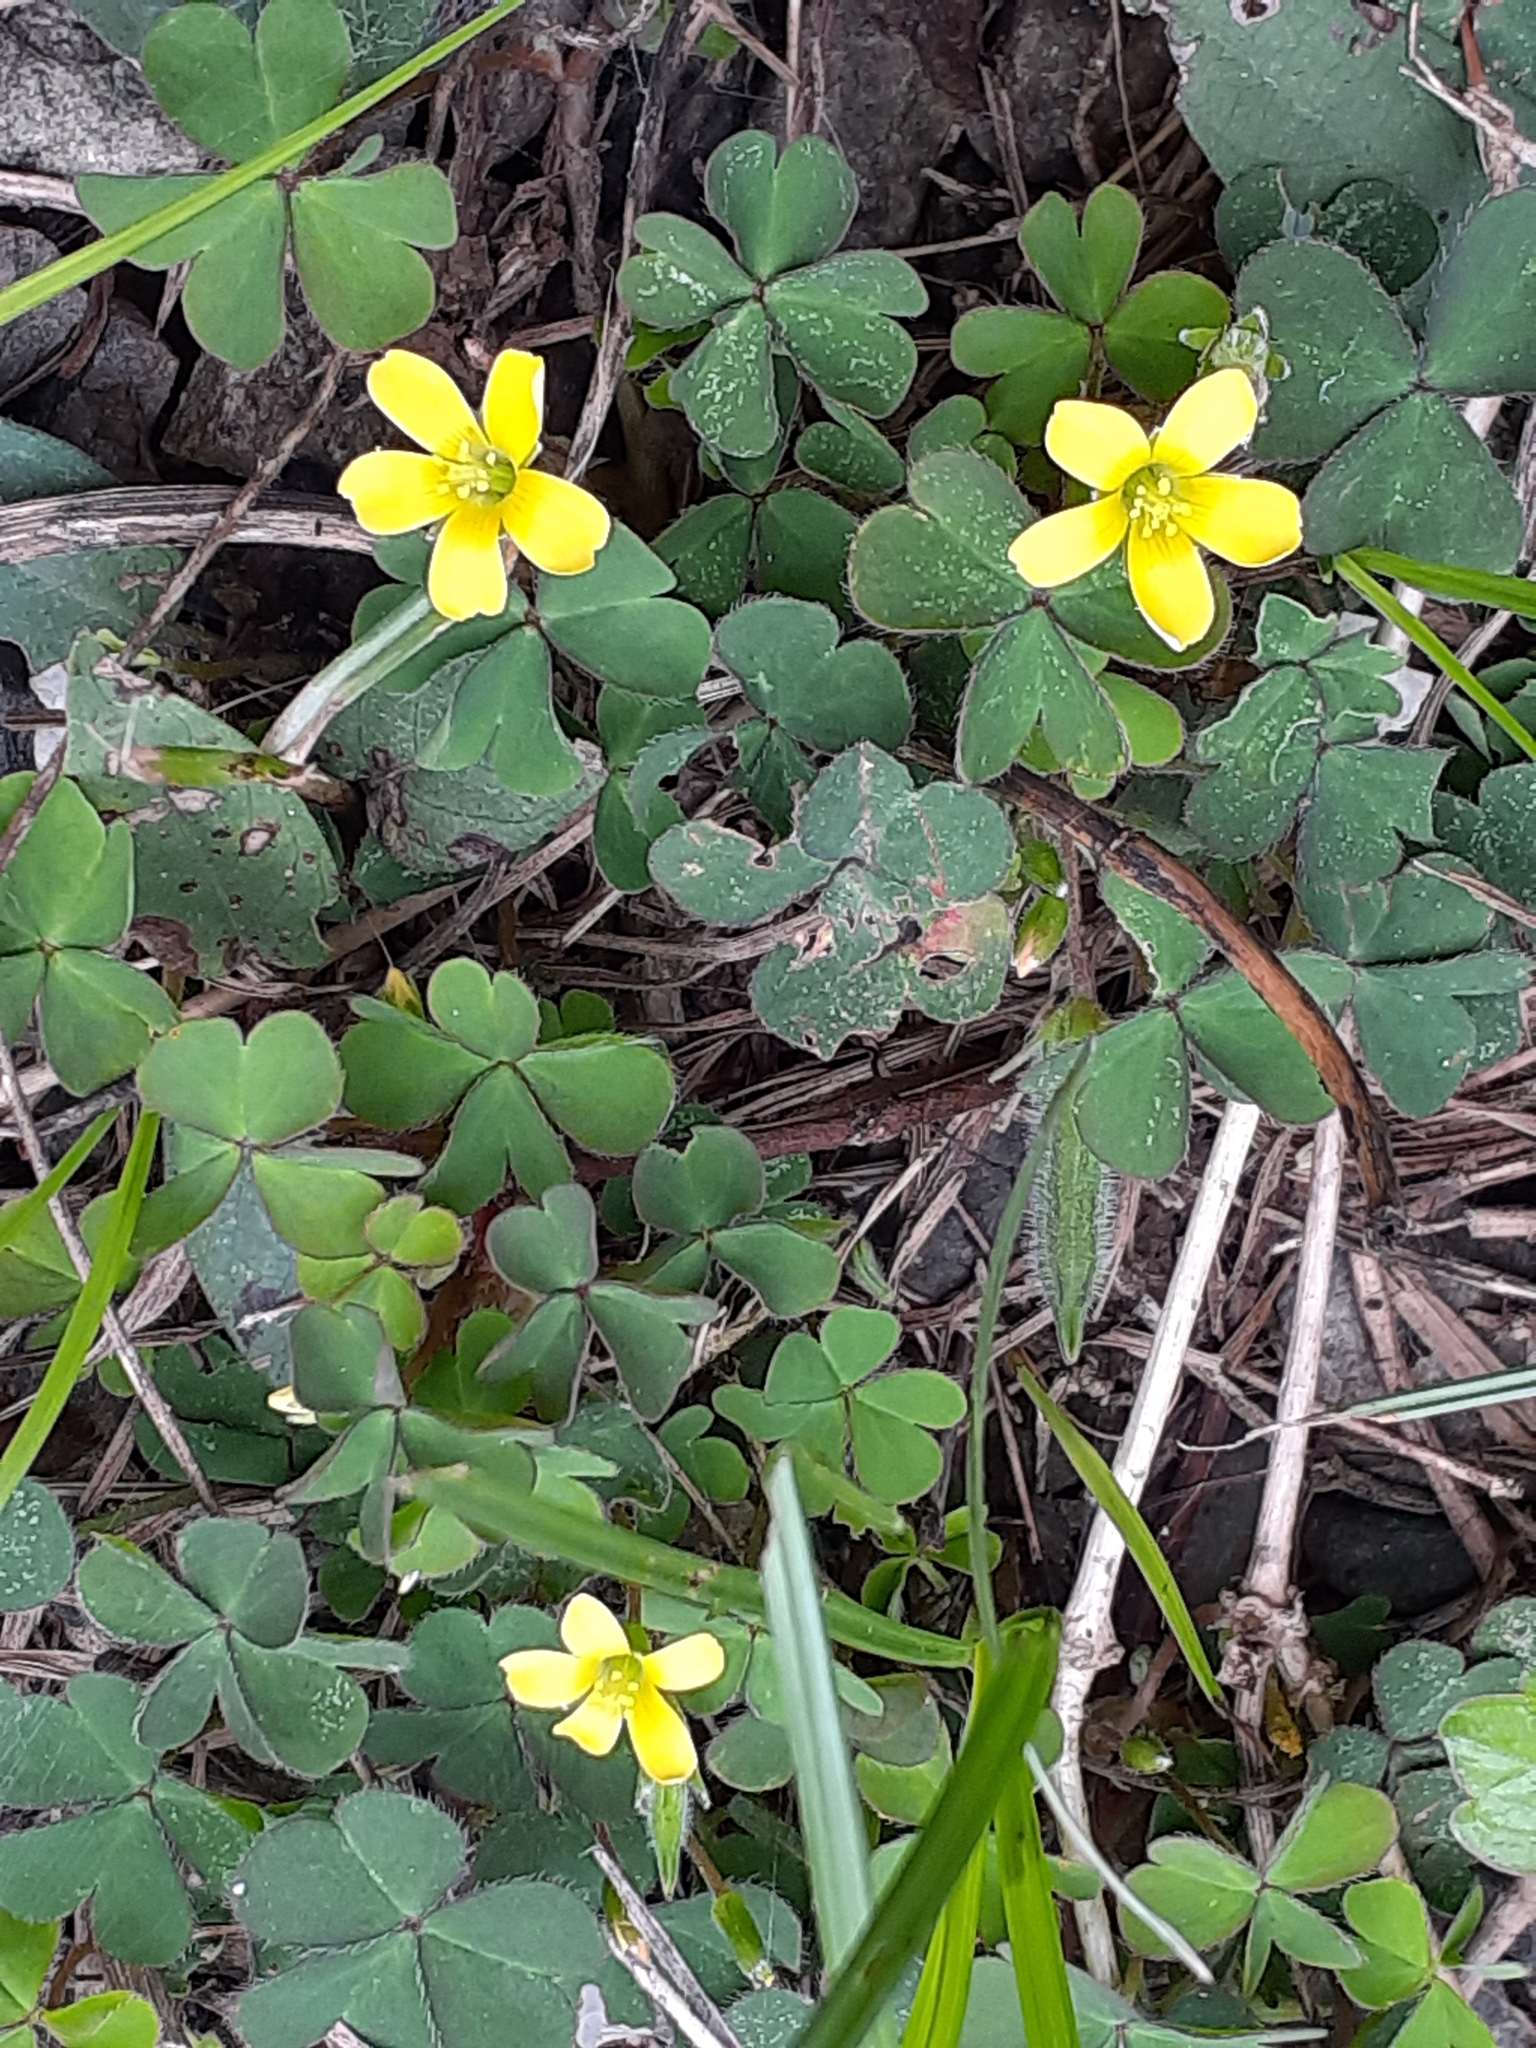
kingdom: Plantae
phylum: Tracheophyta
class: Magnoliopsida
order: Oxalidales
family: Oxalidaceae
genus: Oxalis
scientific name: Oxalis corniculata
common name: Procumbent yellow-sorrel
